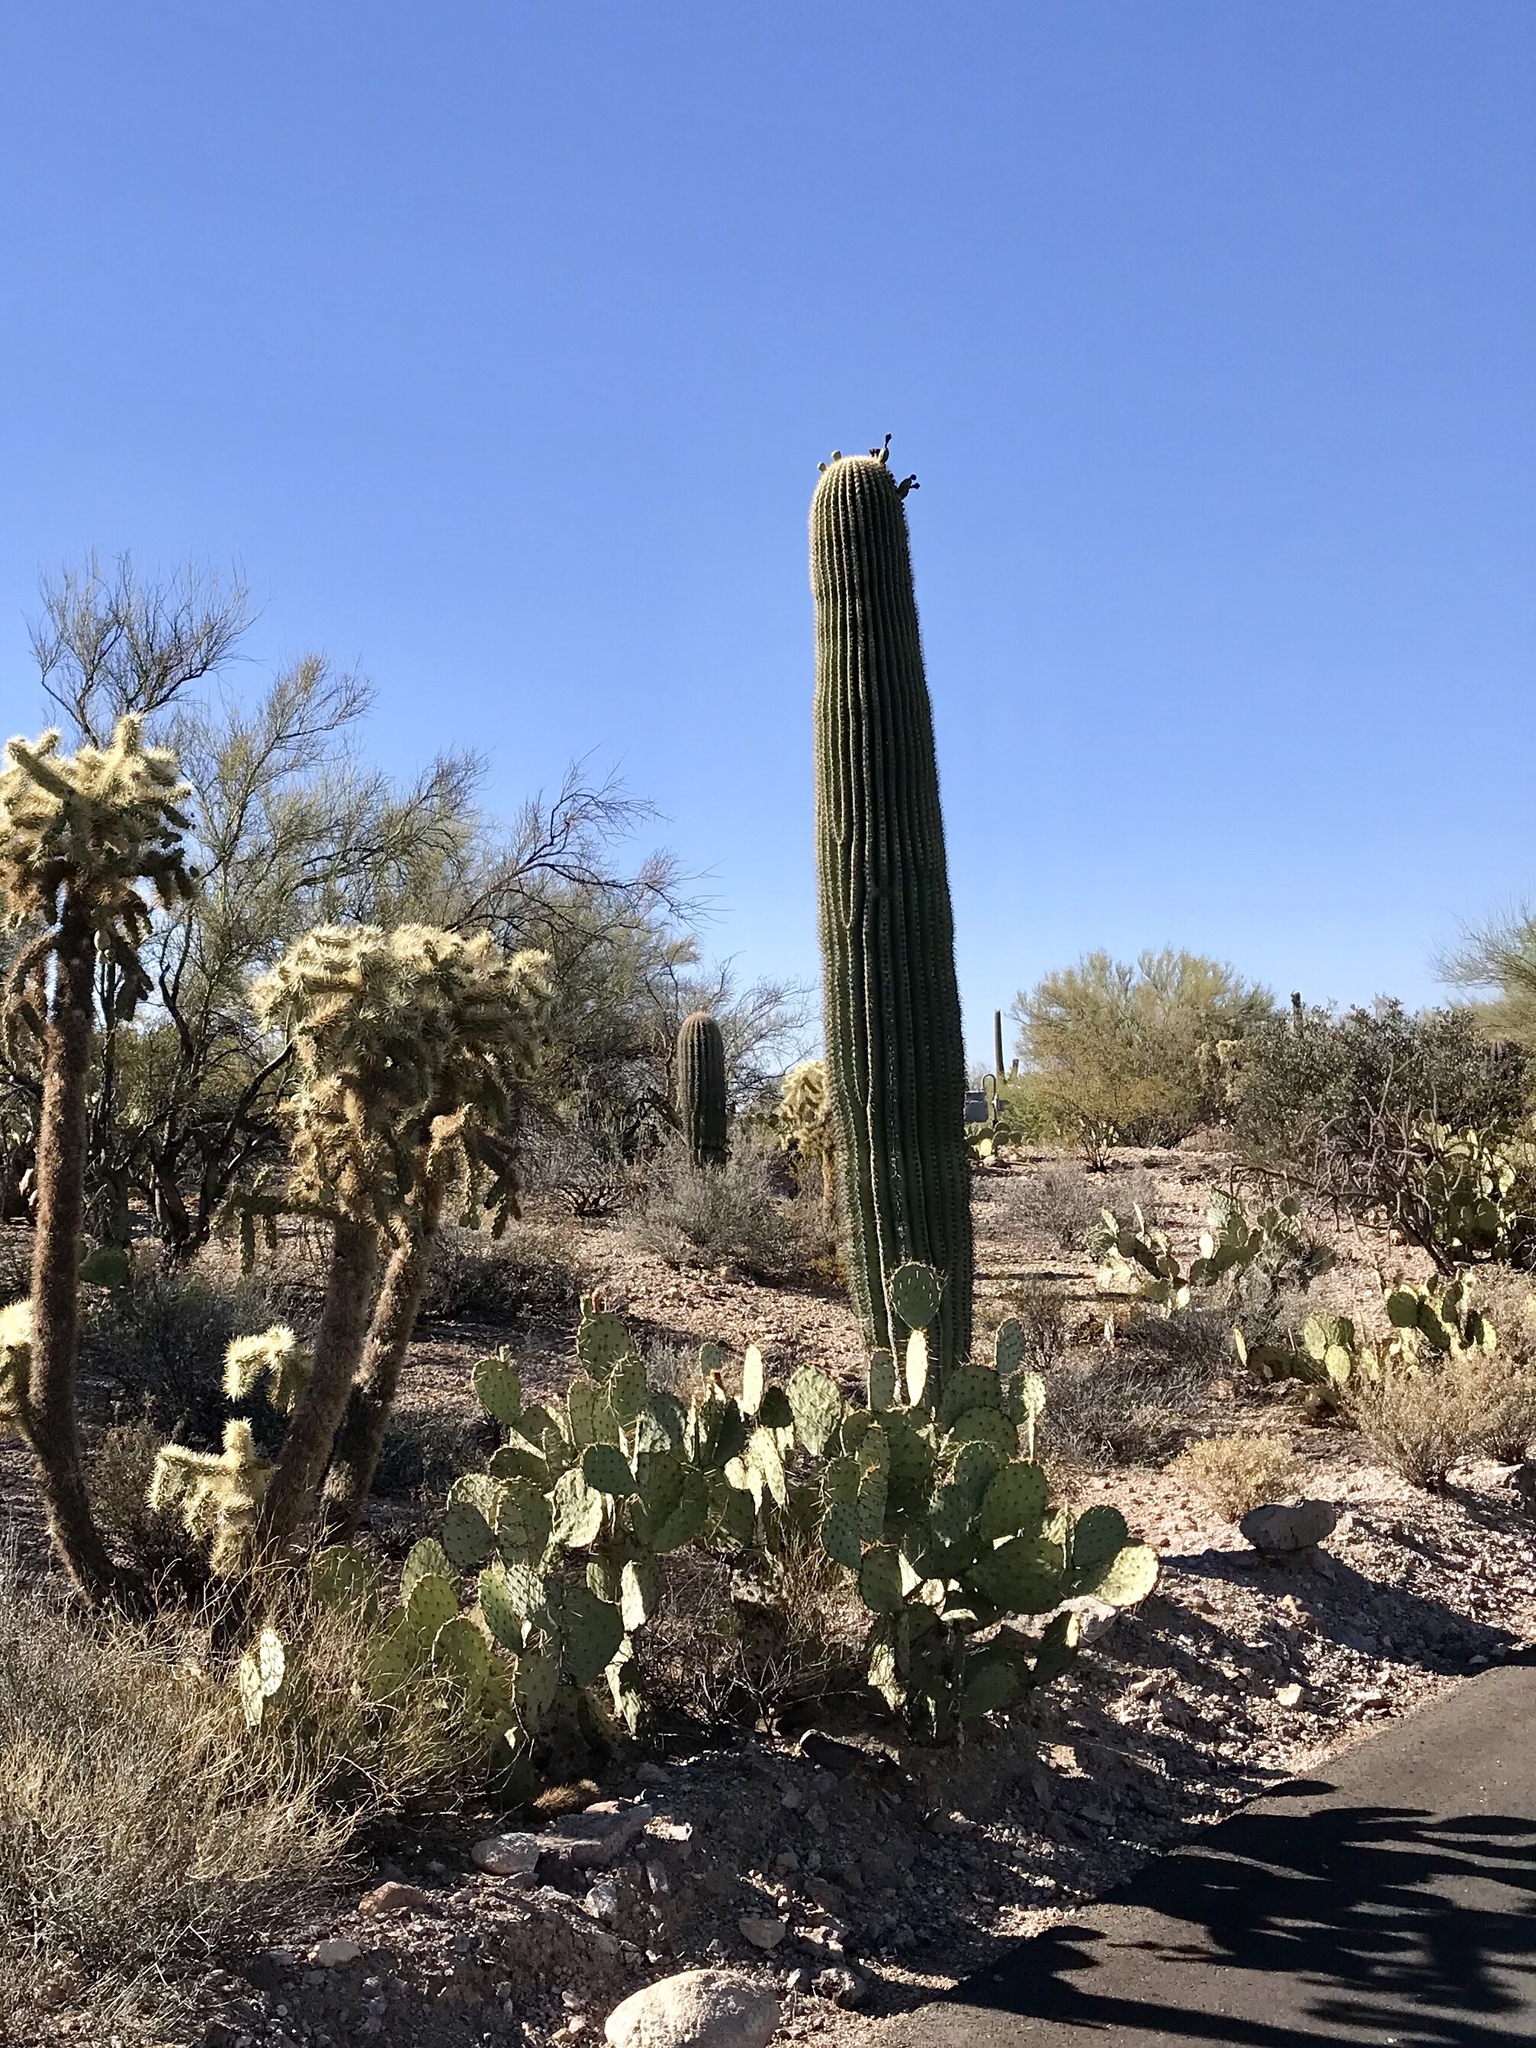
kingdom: Plantae
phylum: Tracheophyta
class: Magnoliopsida
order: Caryophyllales
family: Cactaceae
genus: Carnegiea
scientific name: Carnegiea gigantea
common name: Saguaro
